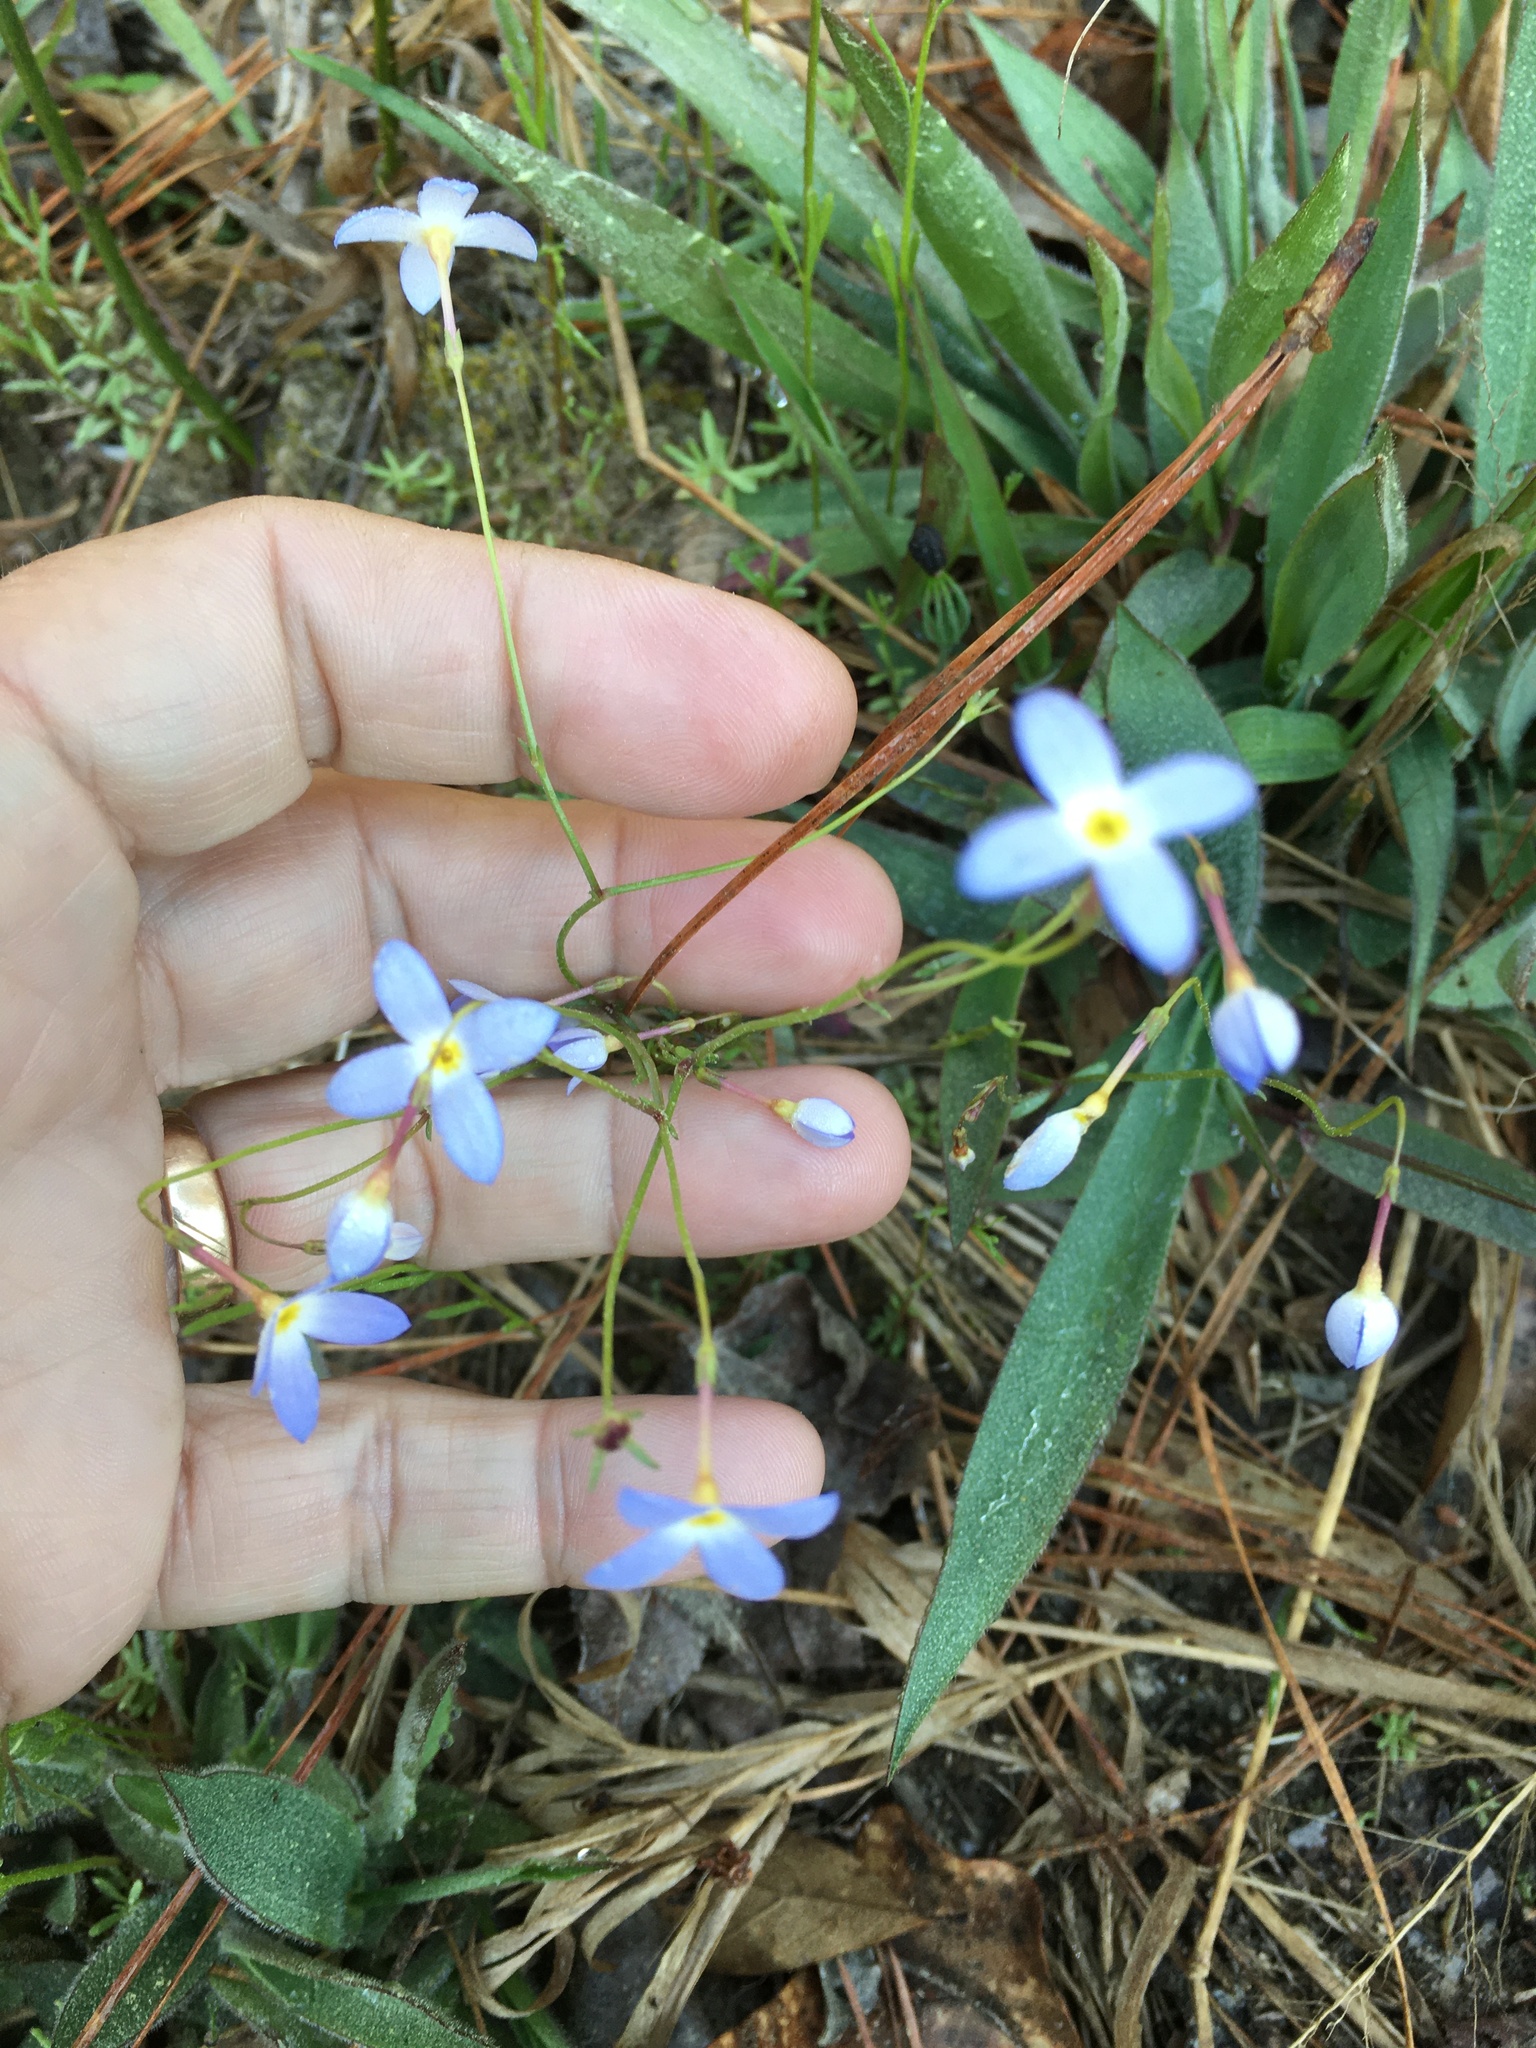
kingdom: Plantae
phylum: Tracheophyta
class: Magnoliopsida
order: Gentianales
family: Rubiaceae
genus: Houstonia
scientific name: Houstonia caerulea
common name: Bluets
